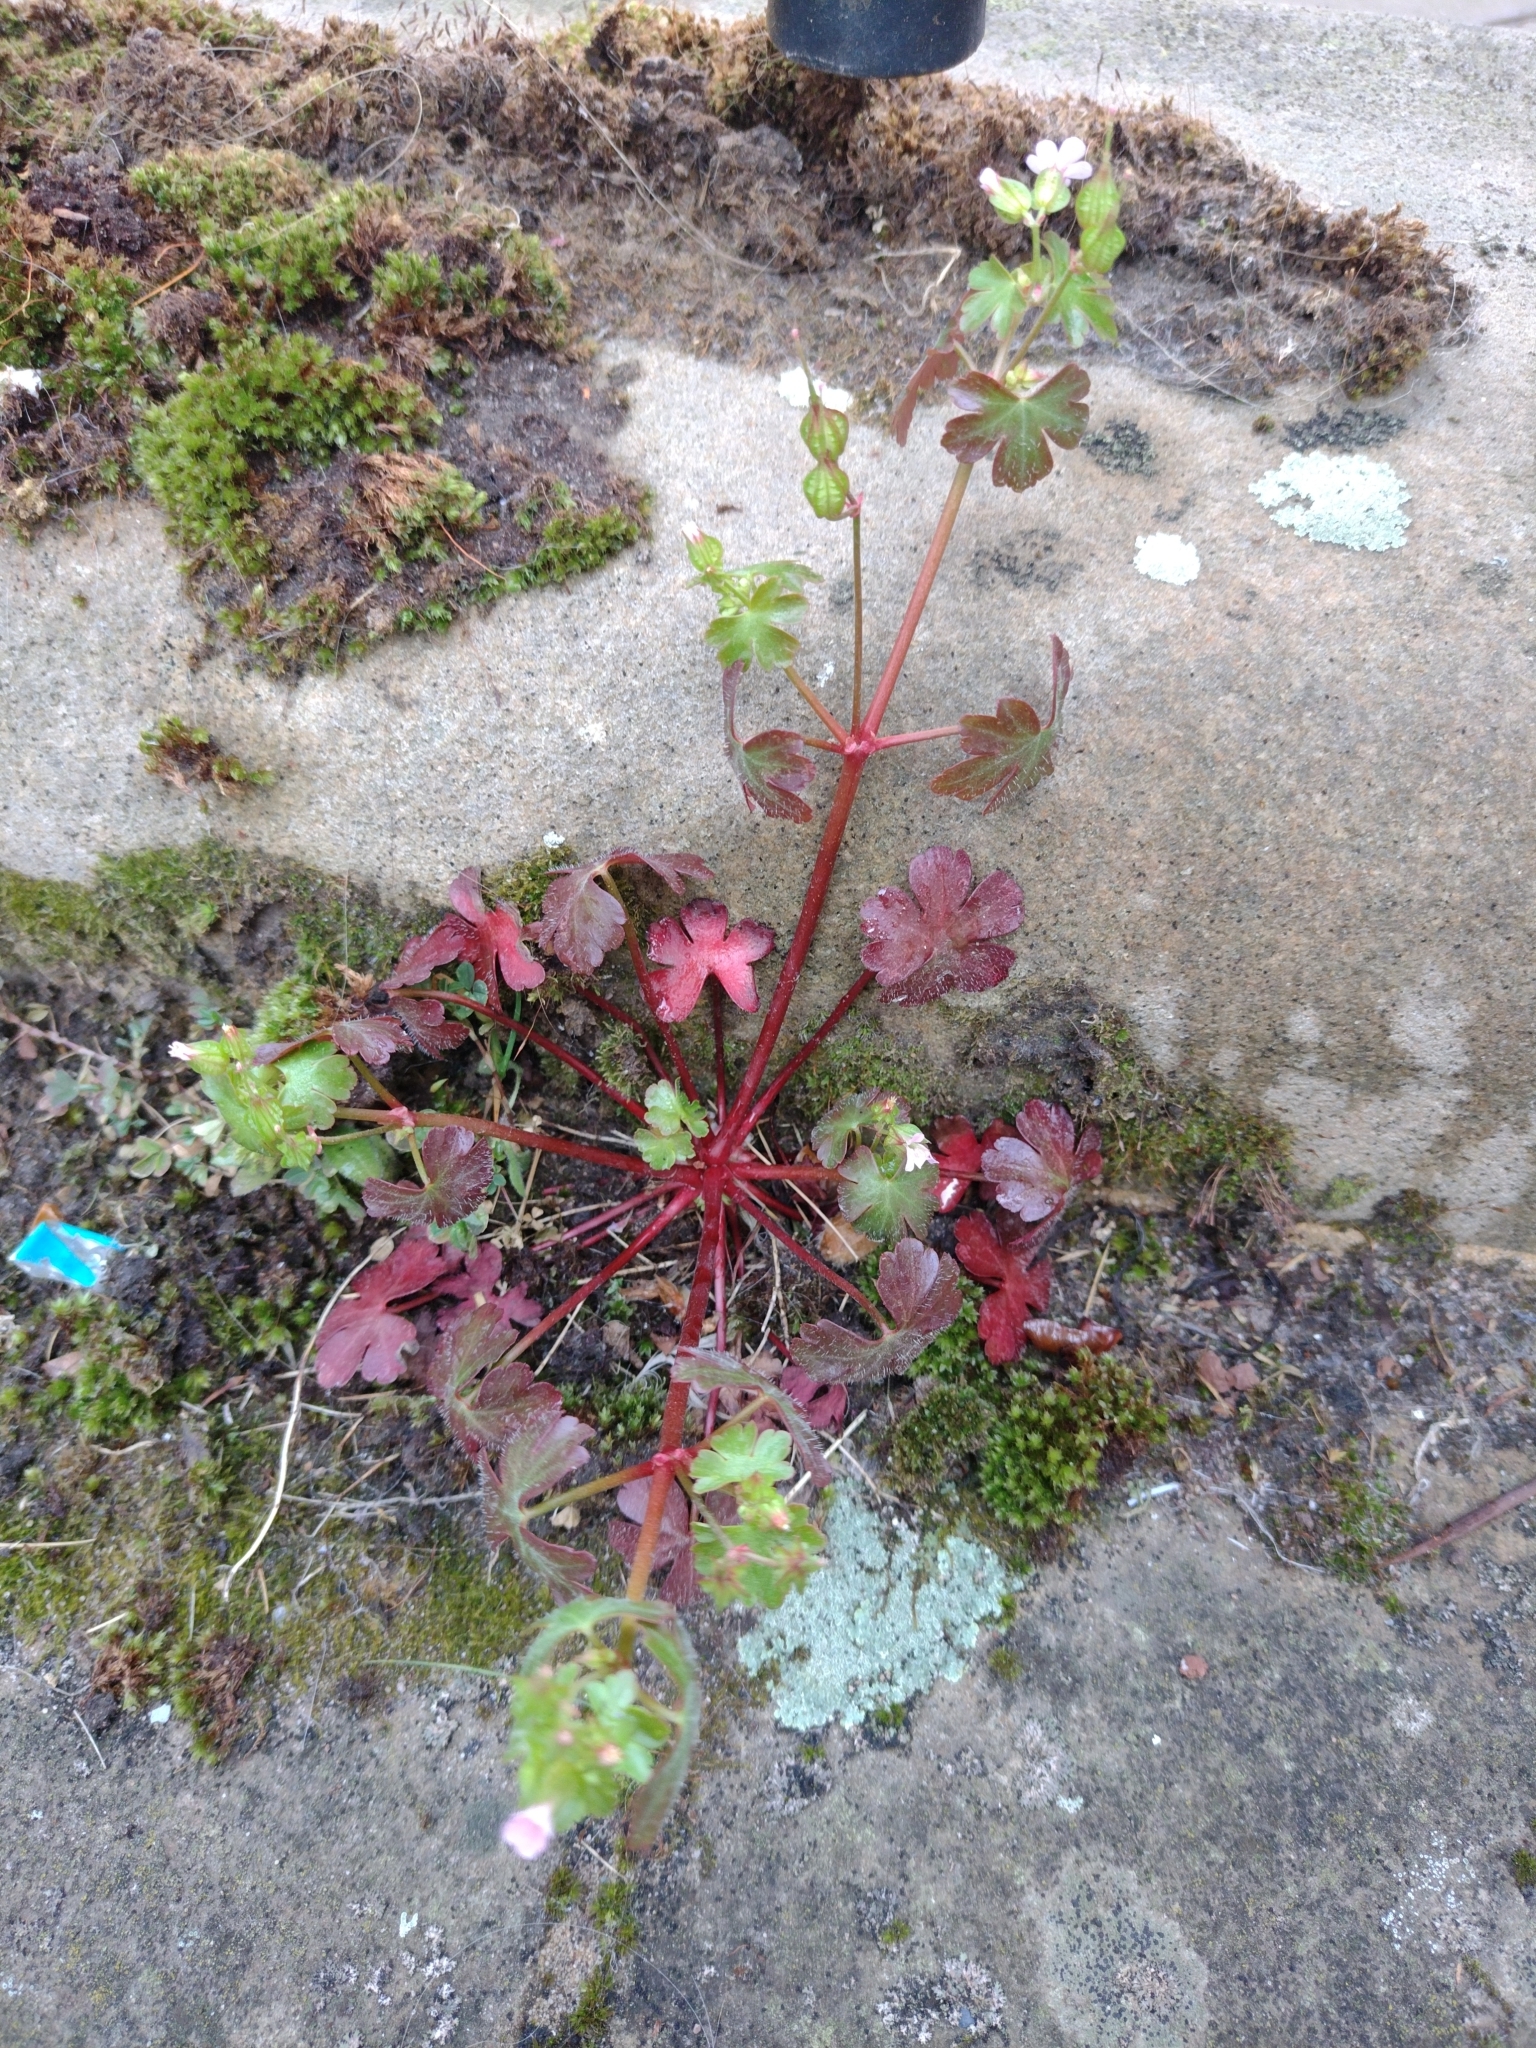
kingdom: Plantae
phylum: Tracheophyta
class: Magnoliopsida
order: Geraniales
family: Geraniaceae
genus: Geranium
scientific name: Geranium lucidum
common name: Shining crane's-bill
